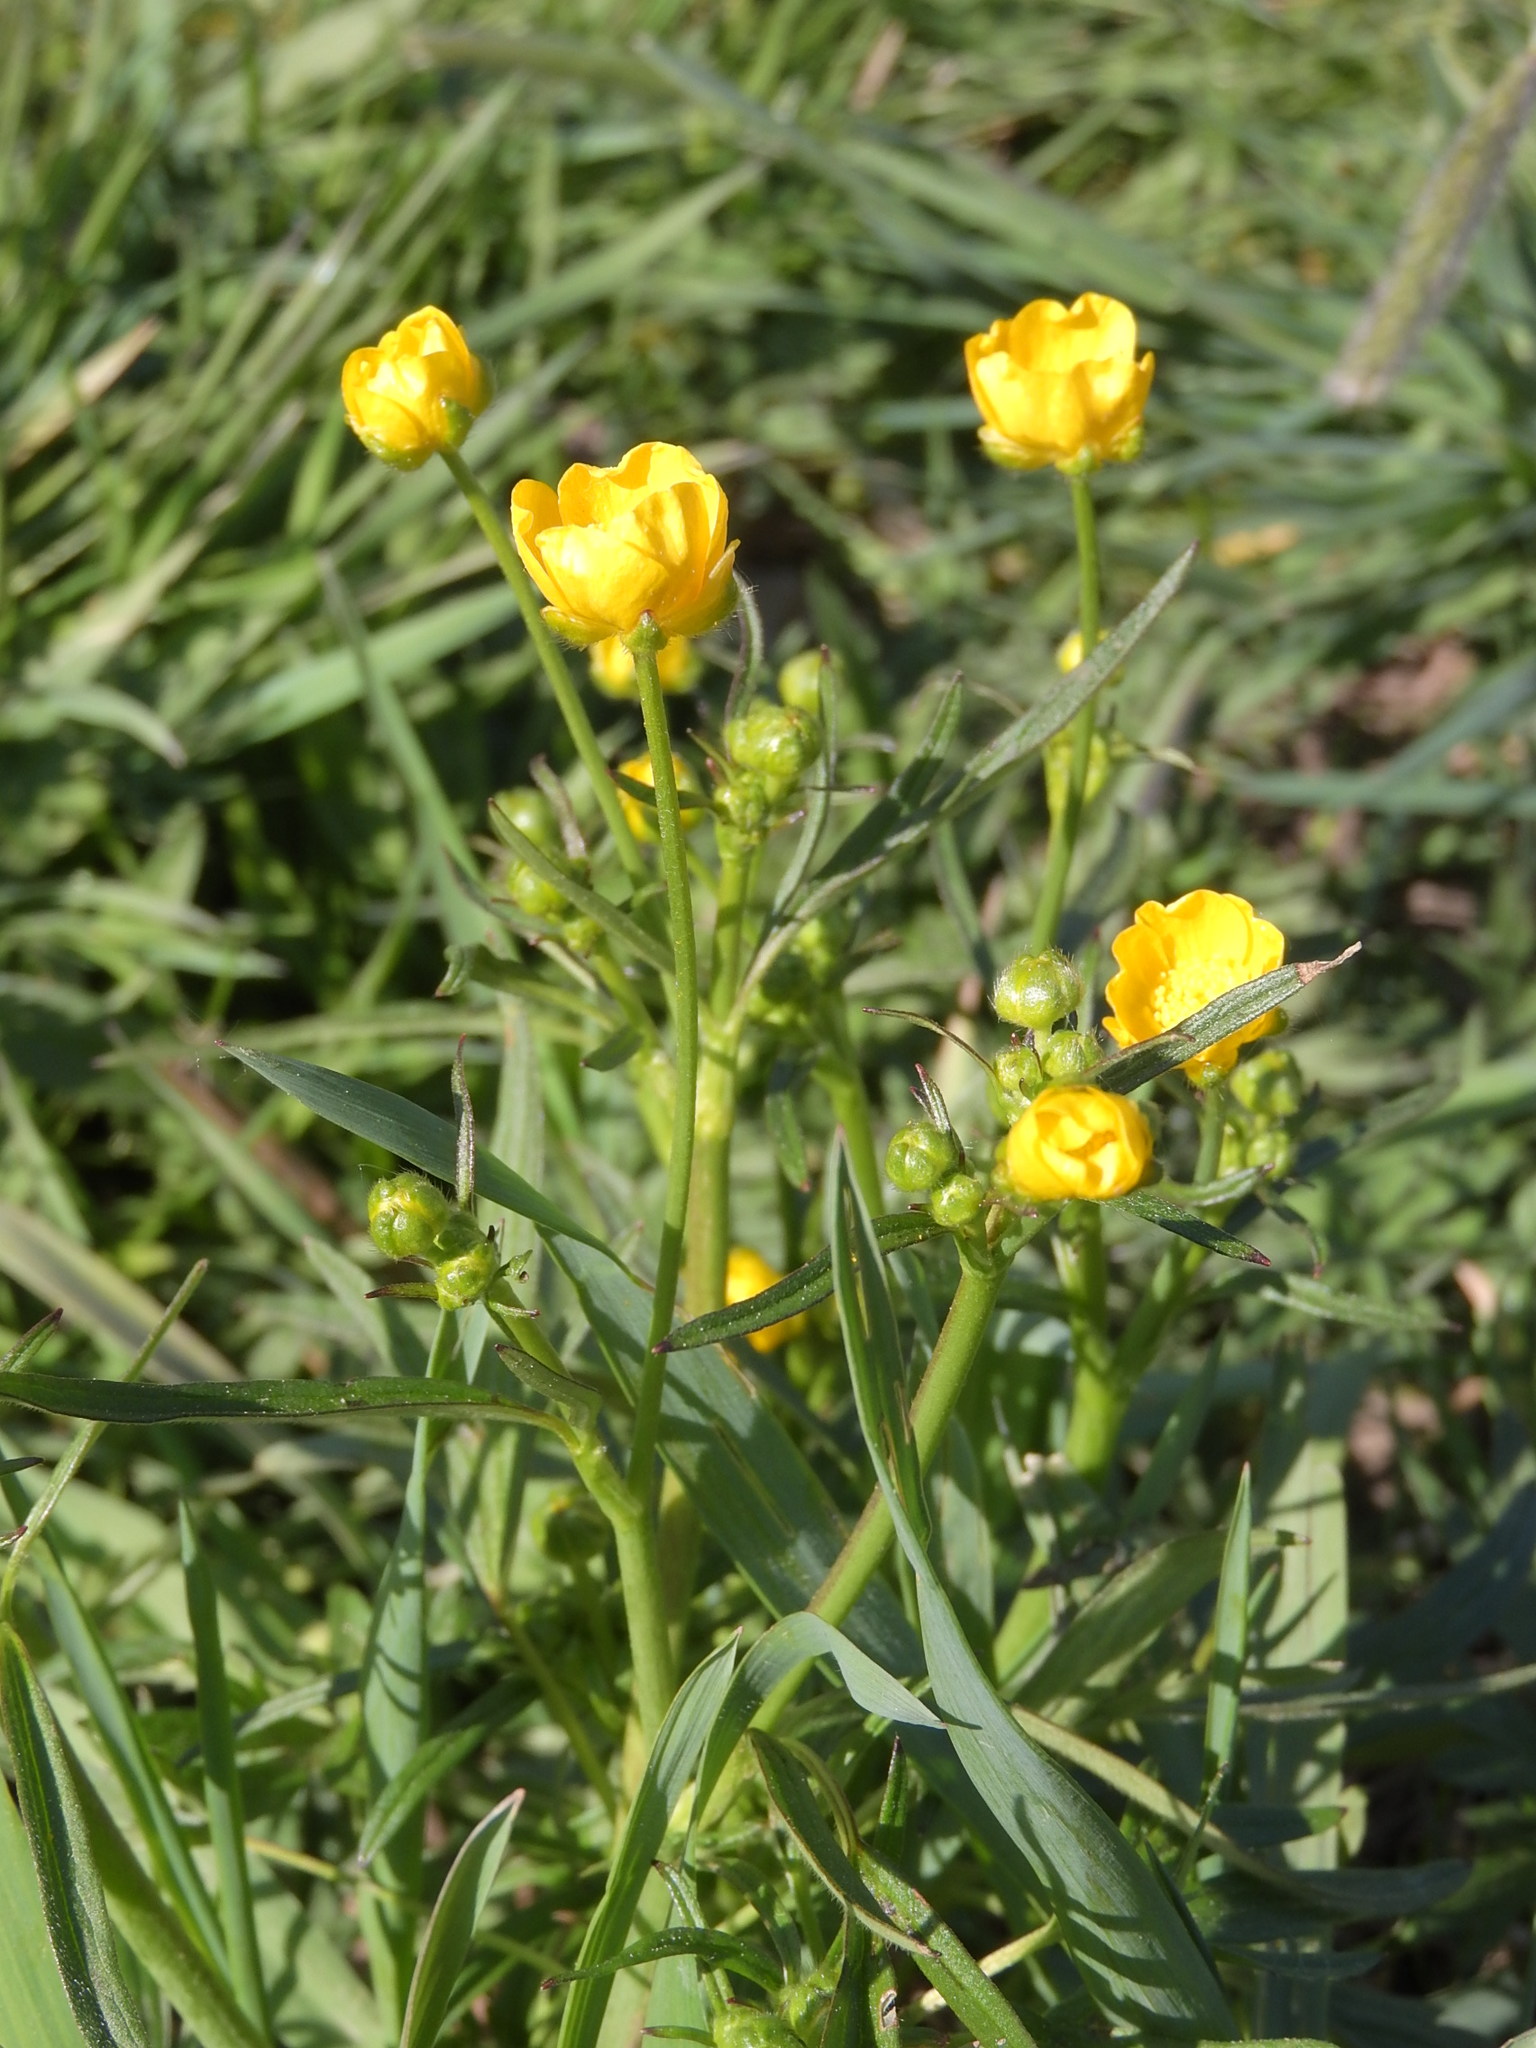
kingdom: Plantae
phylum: Tracheophyta
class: Magnoliopsida
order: Ranunculales
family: Ranunculaceae
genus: Ranunculus
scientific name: Ranunculus acris
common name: Meadow buttercup
